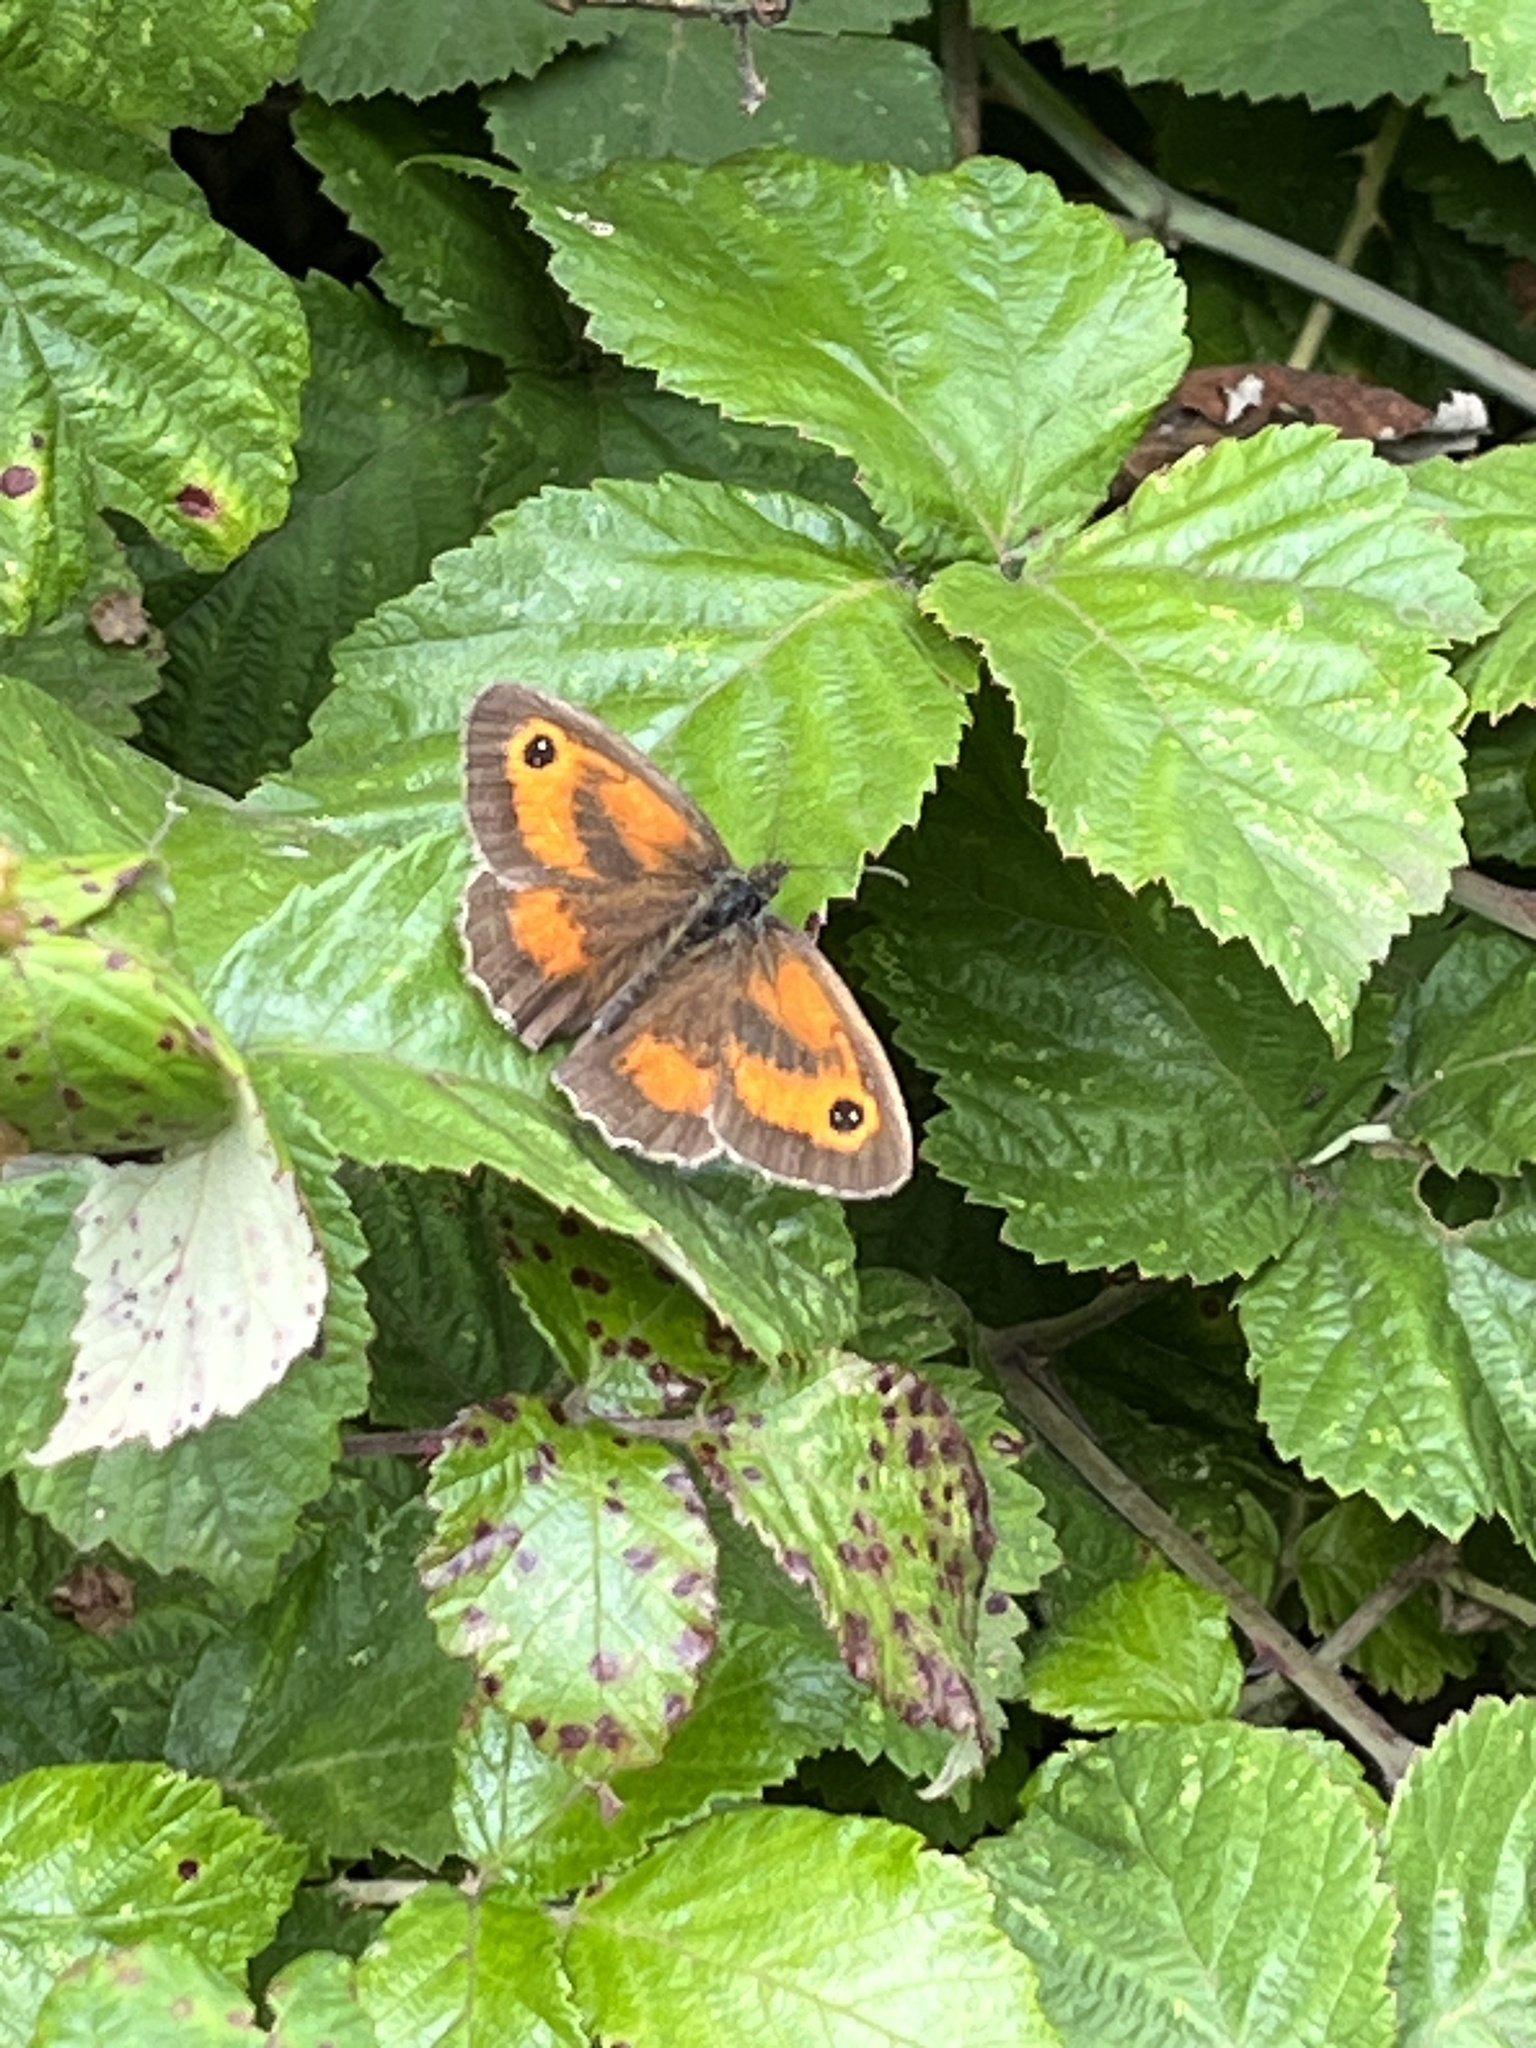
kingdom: Animalia
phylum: Arthropoda
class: Insecta
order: Lepidoptera
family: Nymphalidae
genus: Pyronia
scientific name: Pyronia tithonus
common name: Gatekeeper
